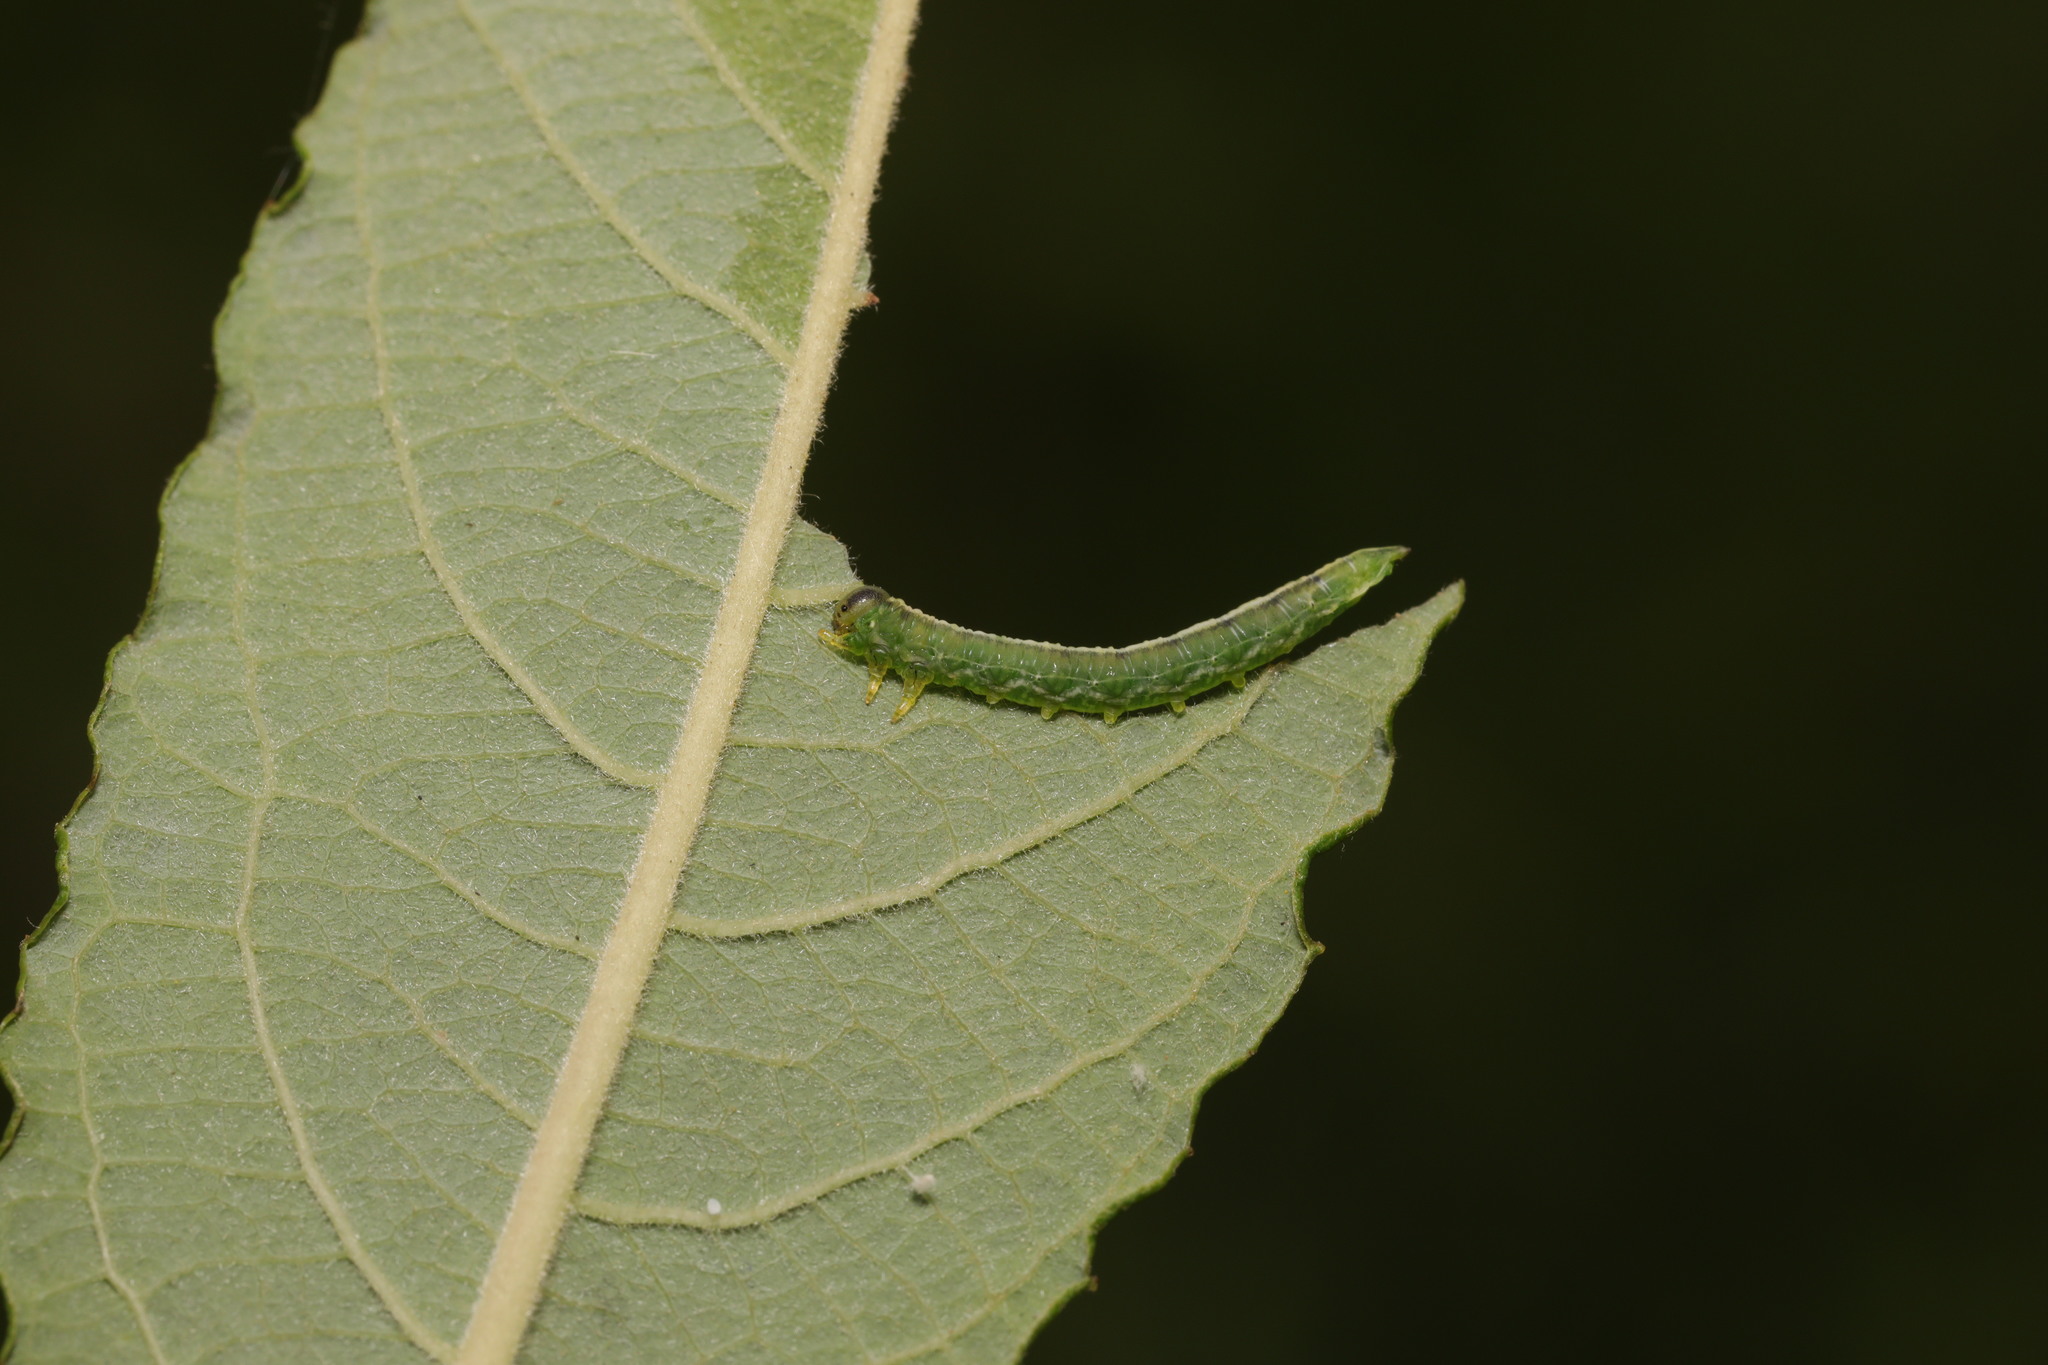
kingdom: Animalia
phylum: Arthropoda
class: Insecta
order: Hymenoptera
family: Tenthredinidae
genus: Euura
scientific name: Euura bergmanni
